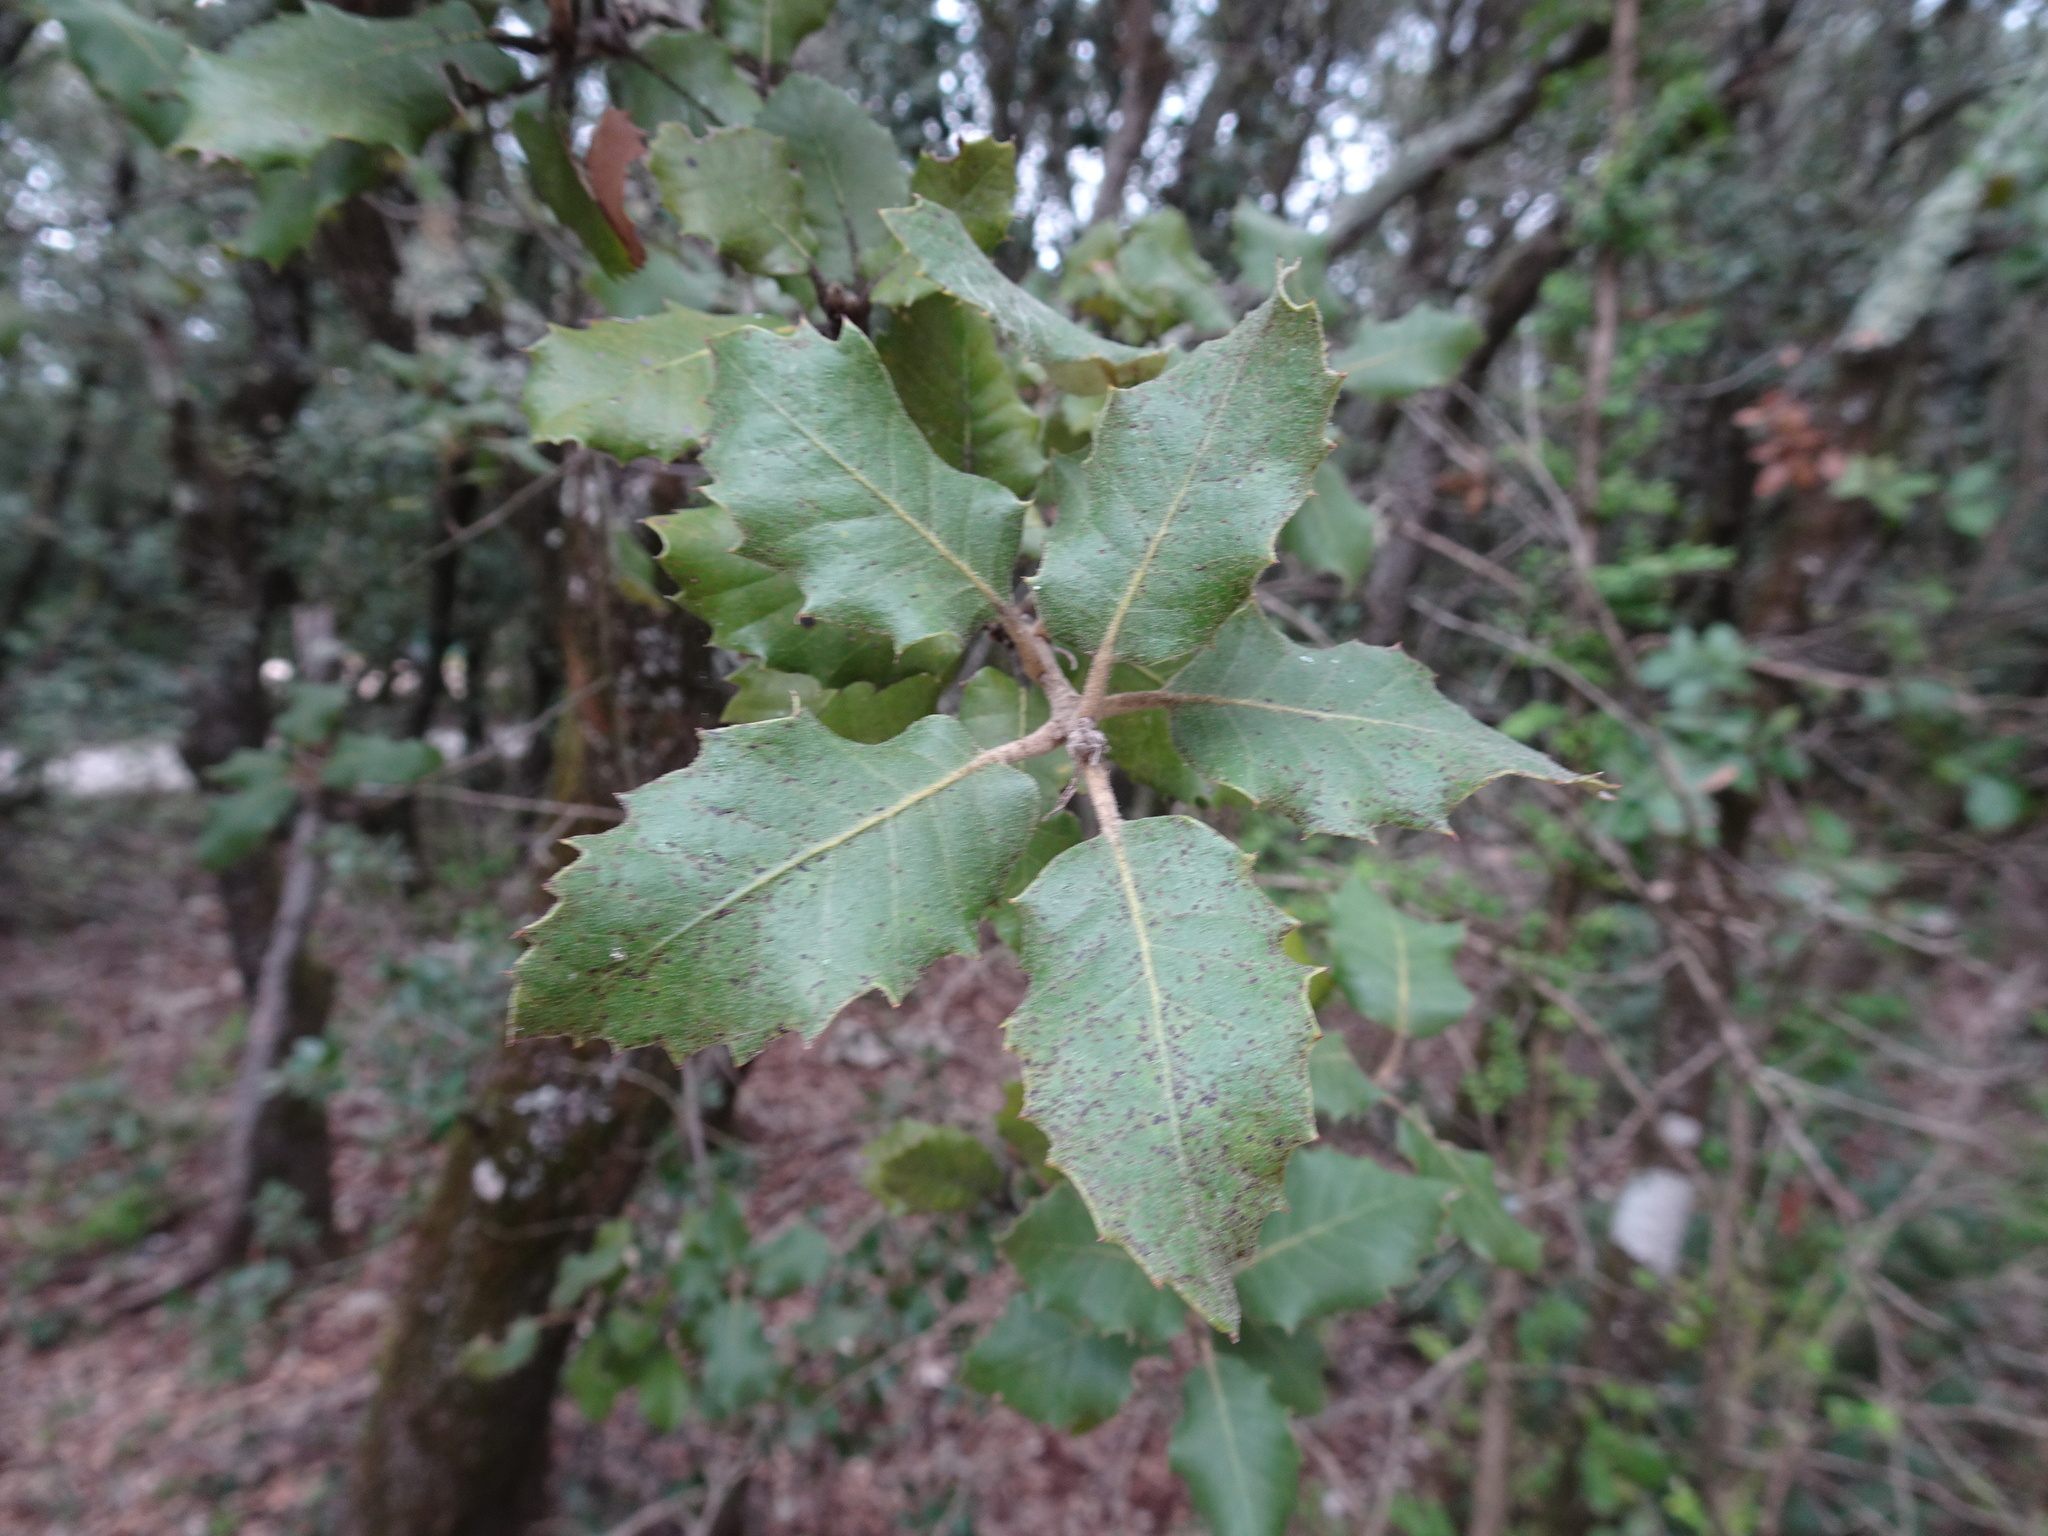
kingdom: Plantae
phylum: Tracheophyta
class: Magnoliopsida
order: Fagales
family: Fagaceae
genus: Quercus
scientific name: Quercus ilex
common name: Evergreen oak
